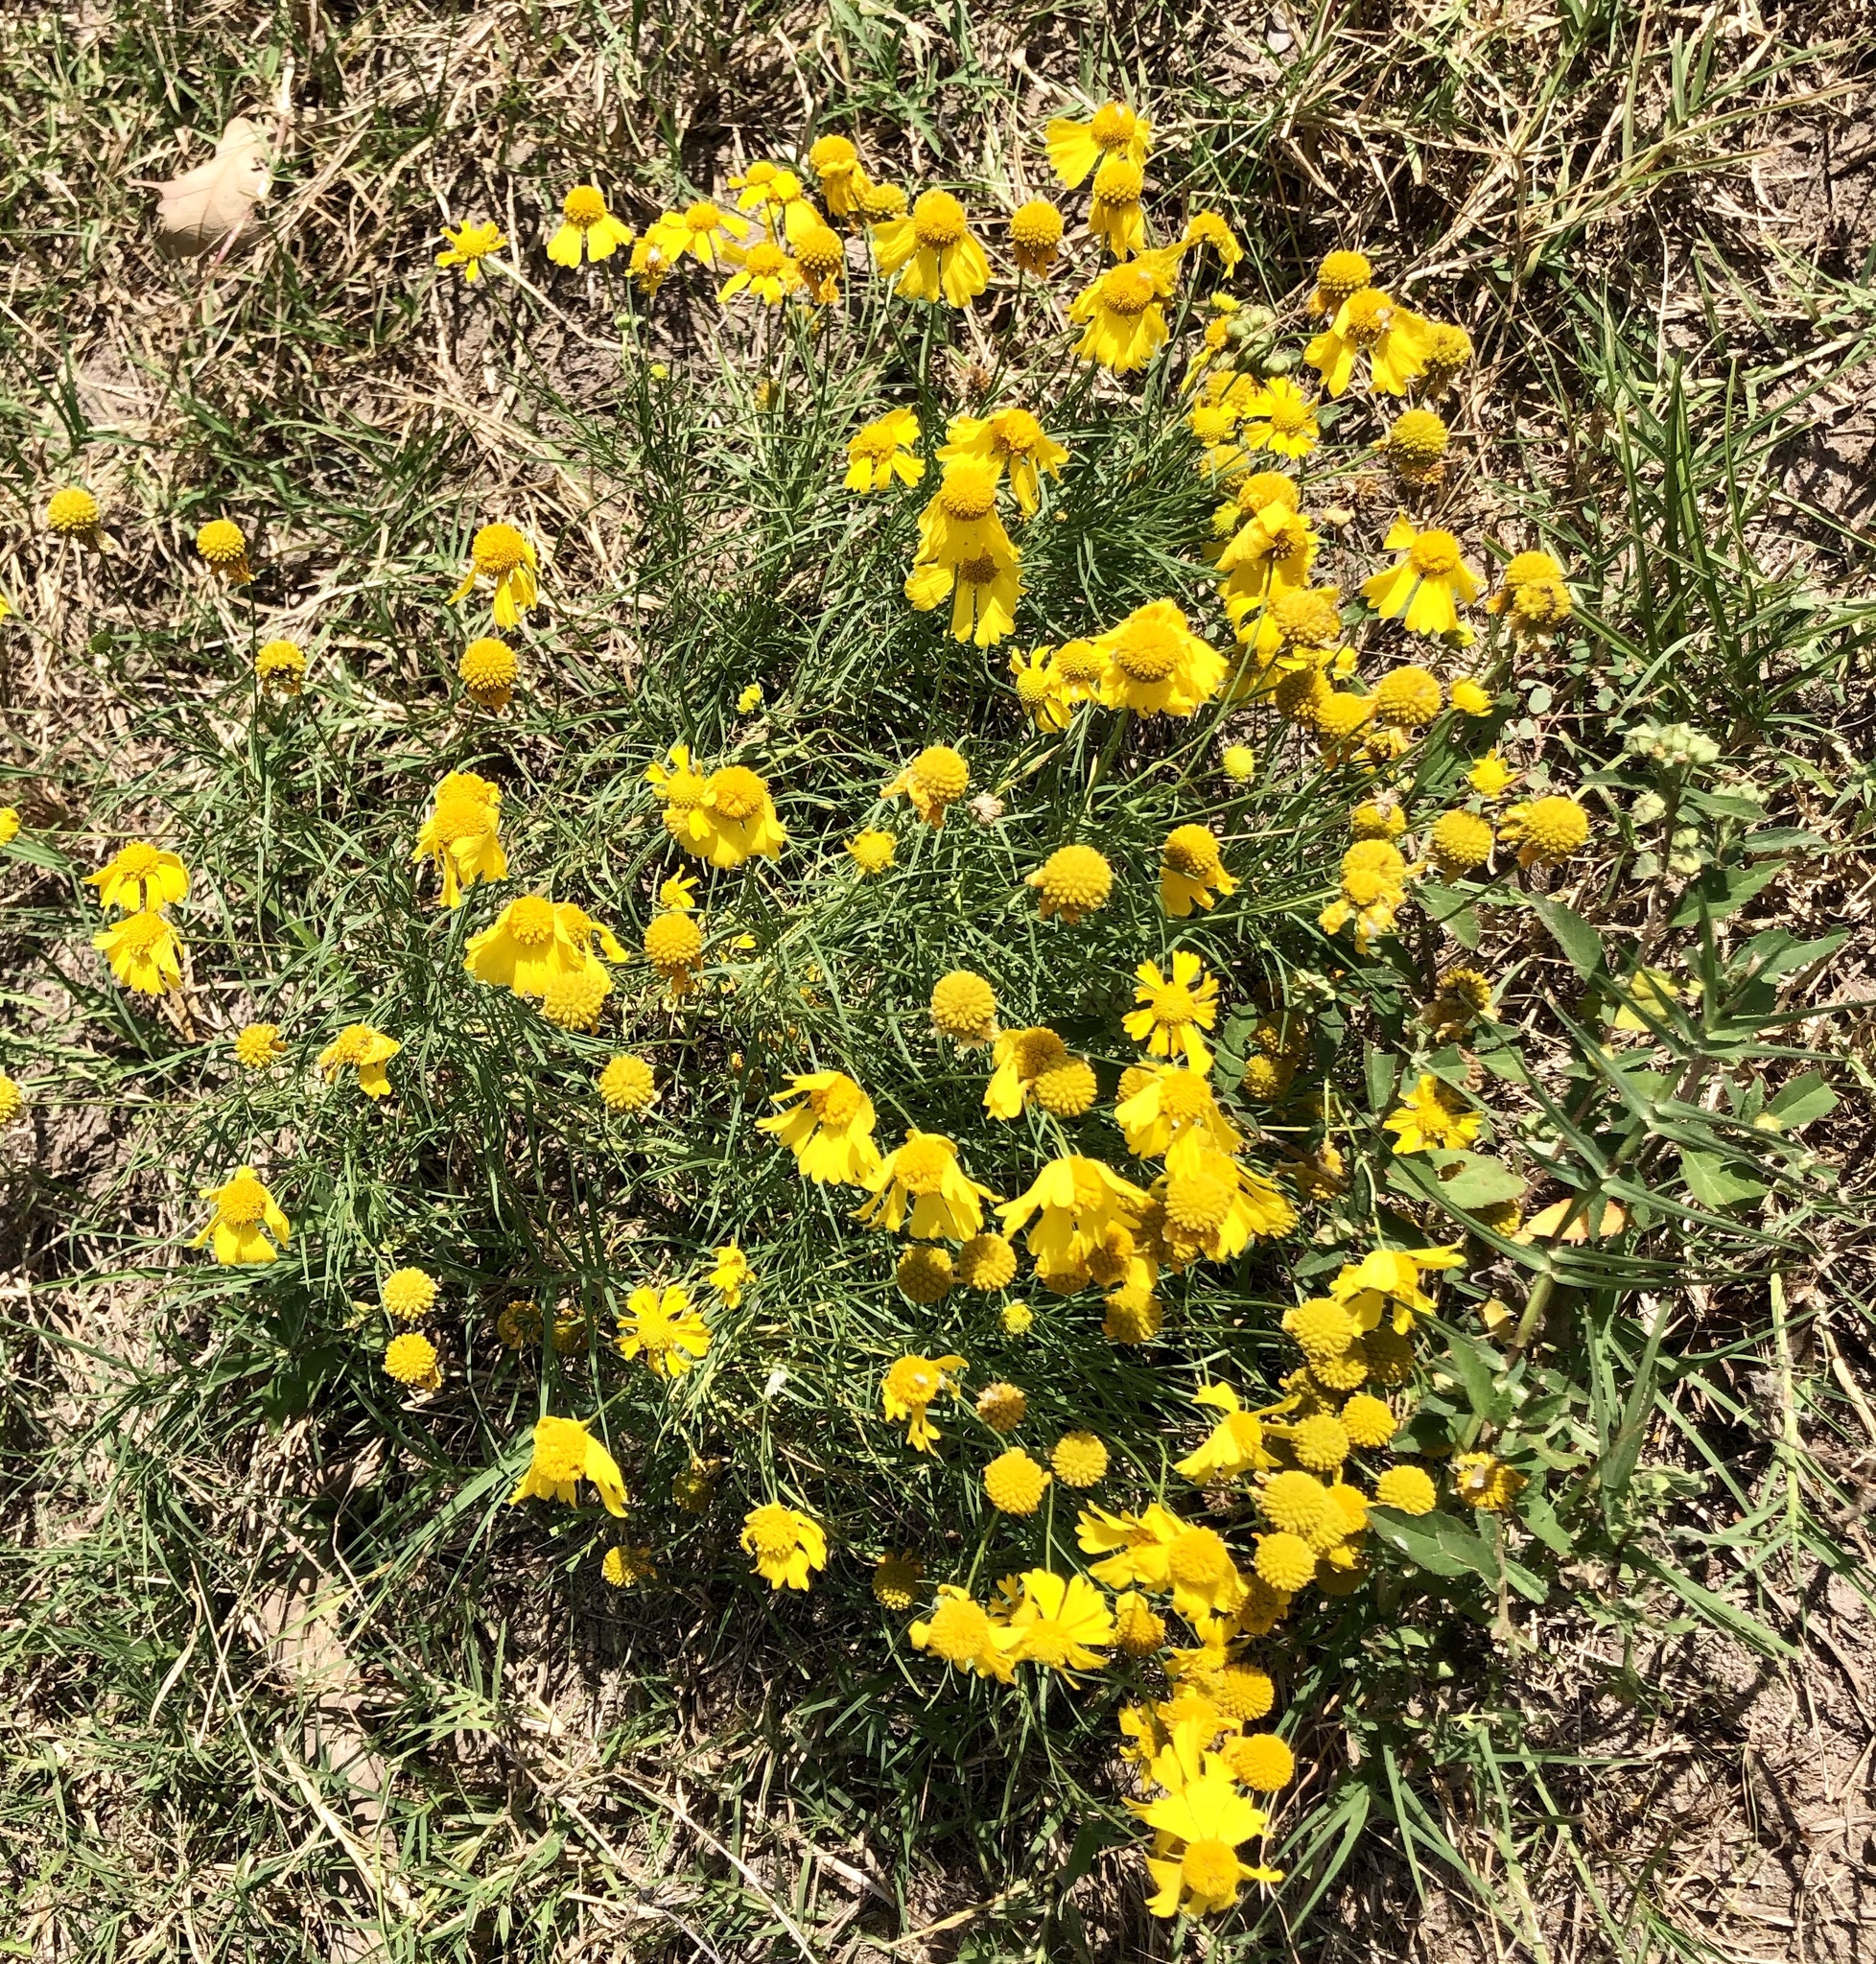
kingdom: Plantae
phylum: Tracheophyta
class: Magnoliopsida
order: Asterales
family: Asteraceae
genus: Helenium
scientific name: Helenium amarum
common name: Bitter sneezeweed
